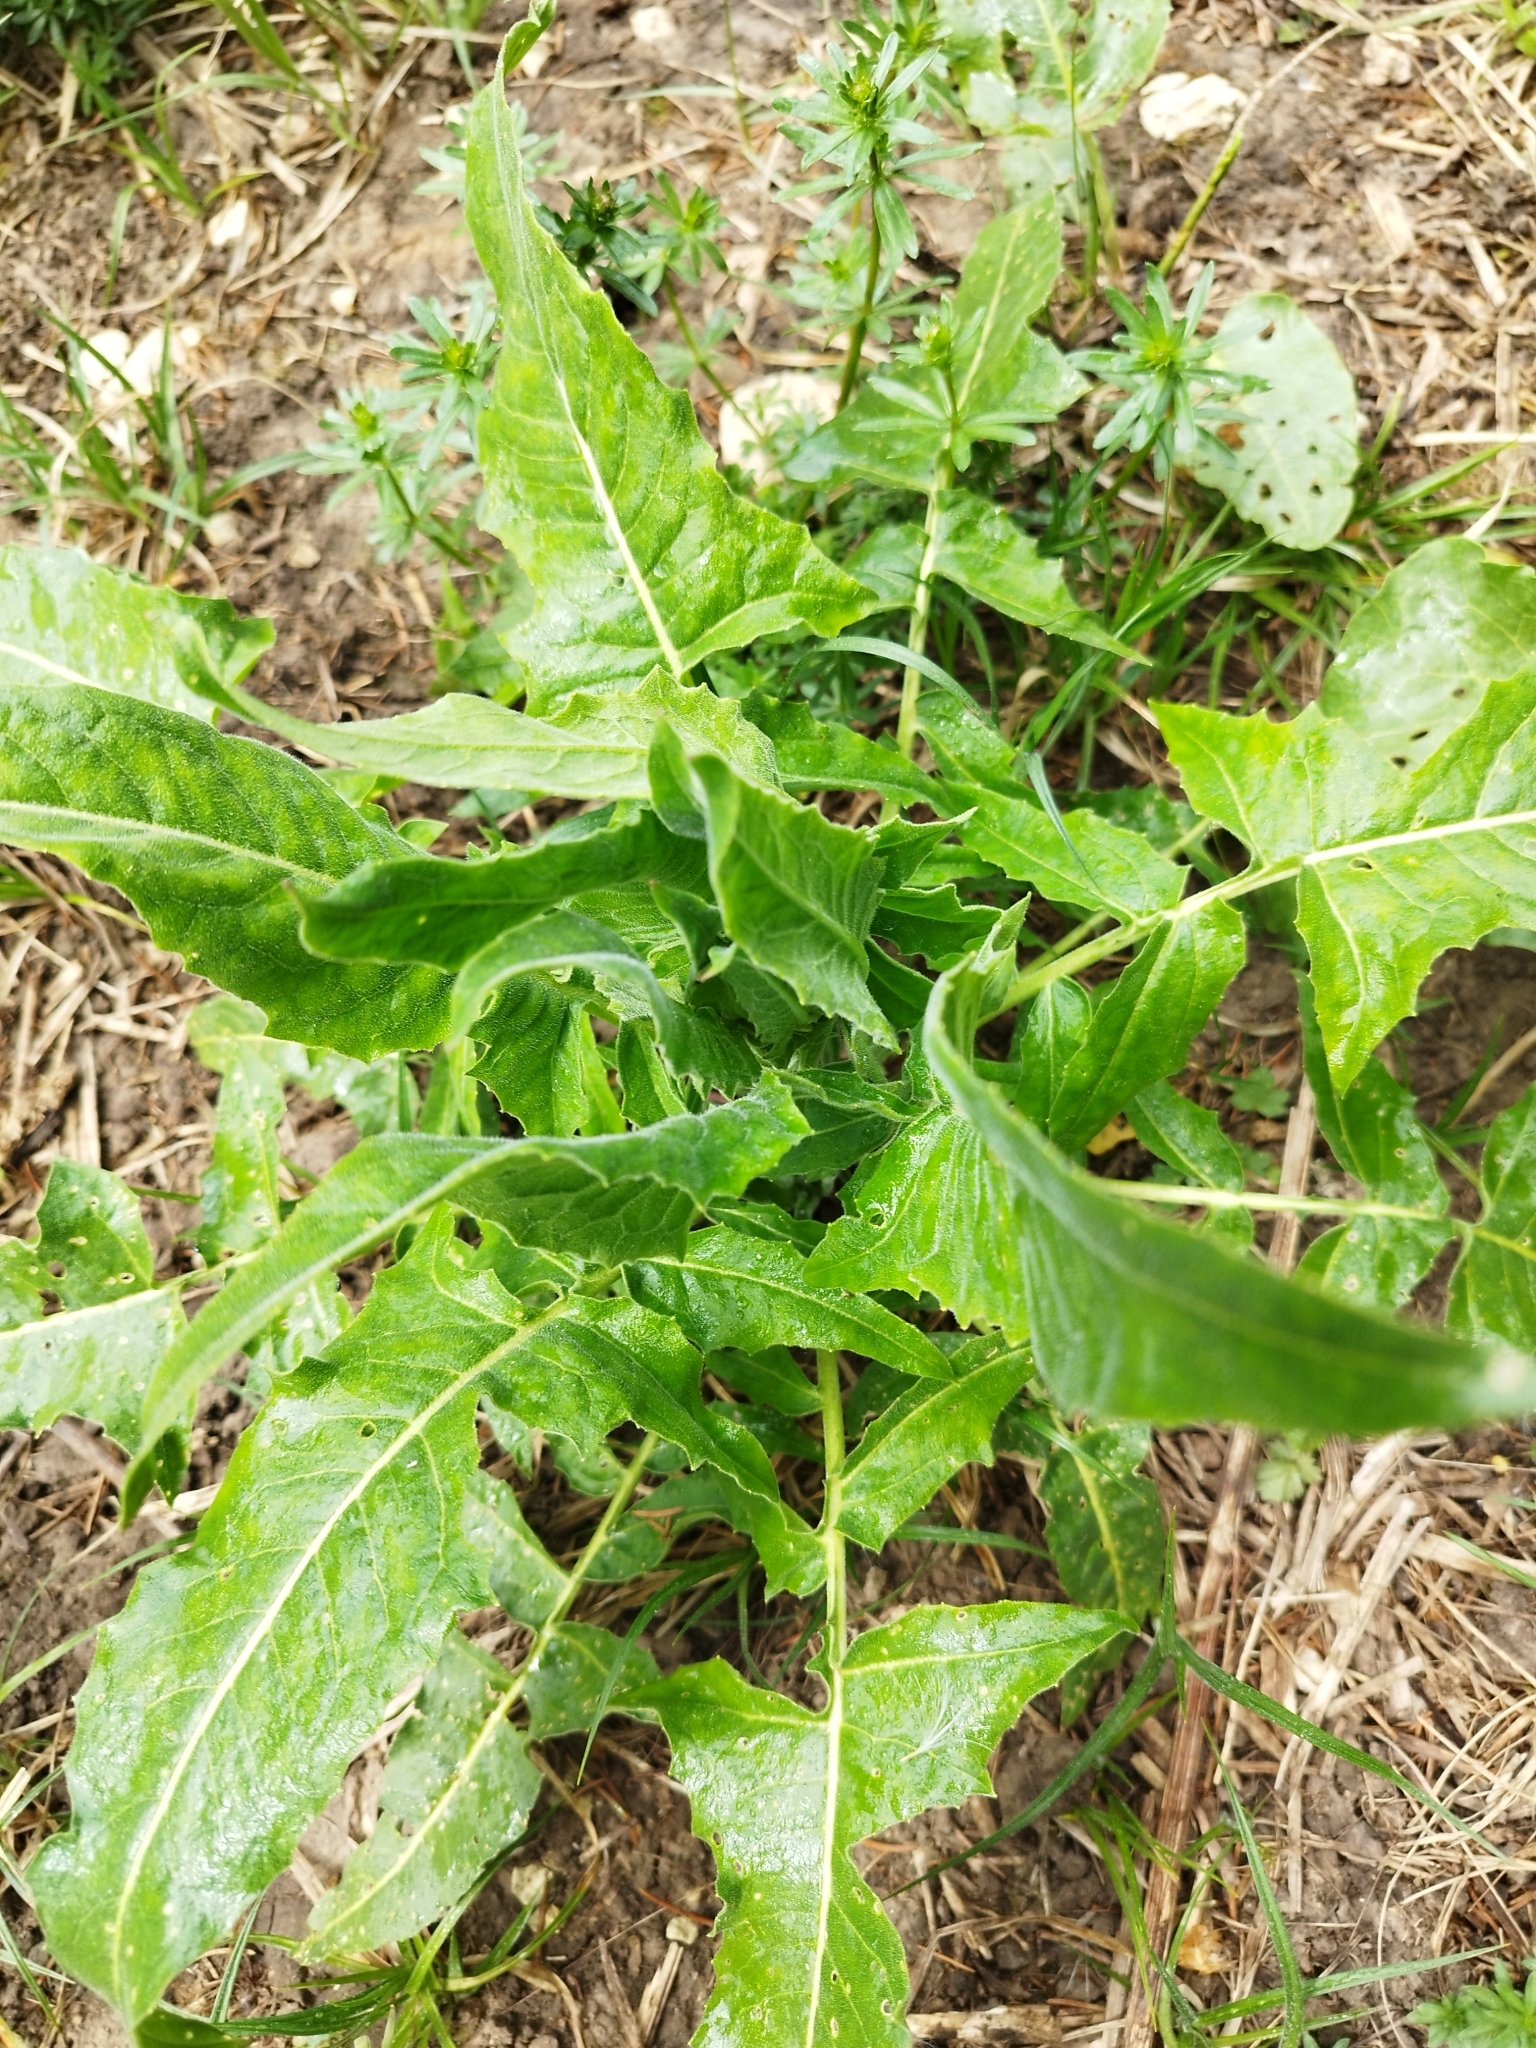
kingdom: Plantae
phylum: Tracheophyta
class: Magnoliopsida
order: Brassicales
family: Brassicaceae
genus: Bunias
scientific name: Bunias orientalis
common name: Warty-cabbage
